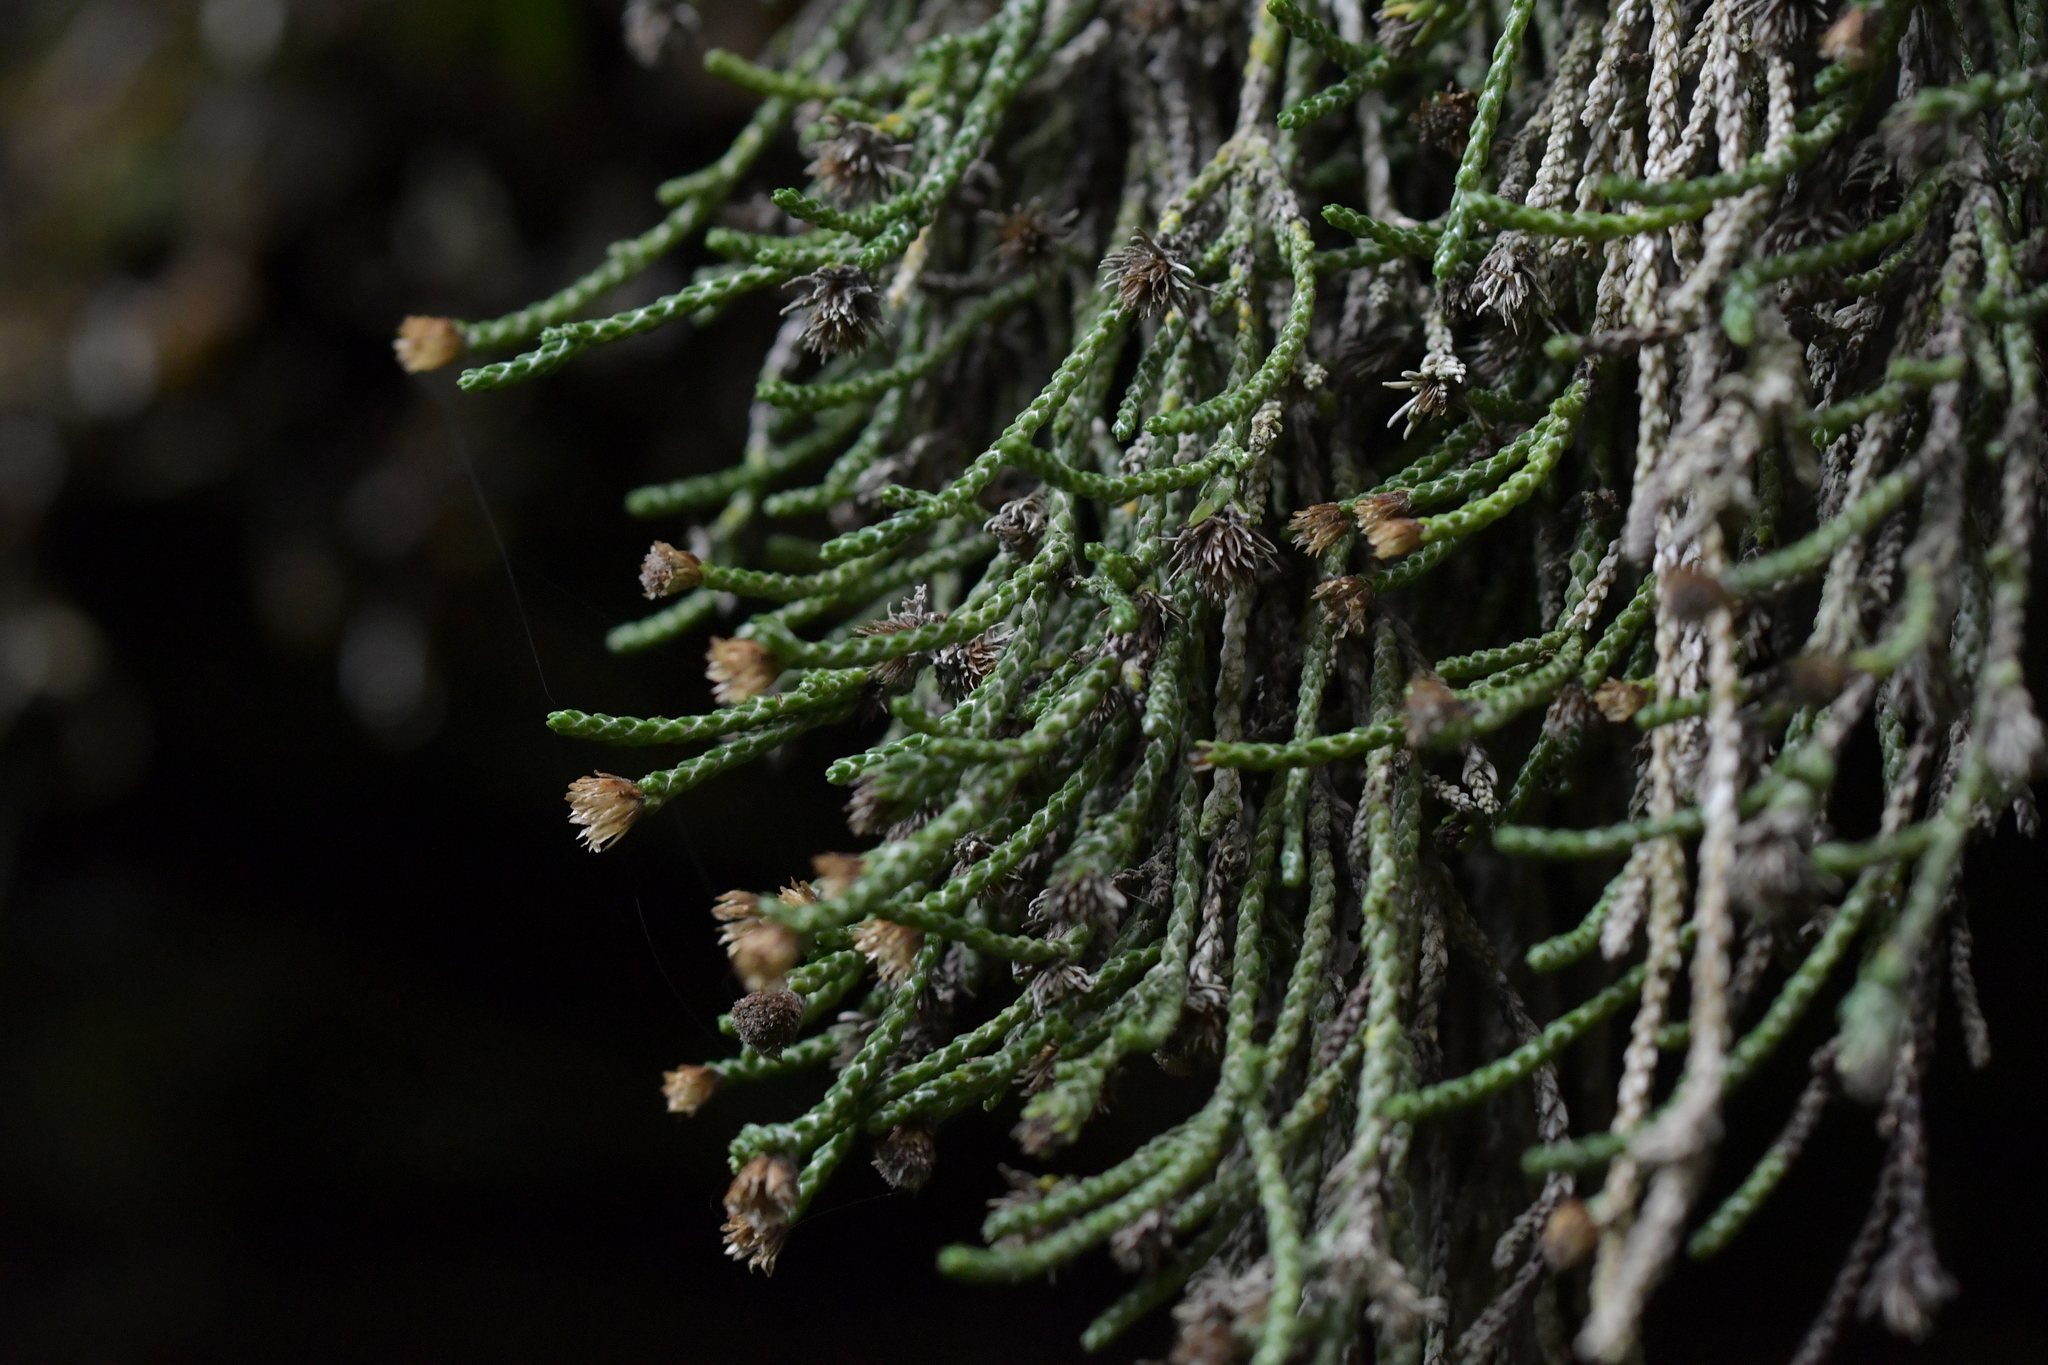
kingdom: Plantae
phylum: Tracheophyta
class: Magnoliopsida
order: Asterales
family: Asteraceae
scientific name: Asteraceae
